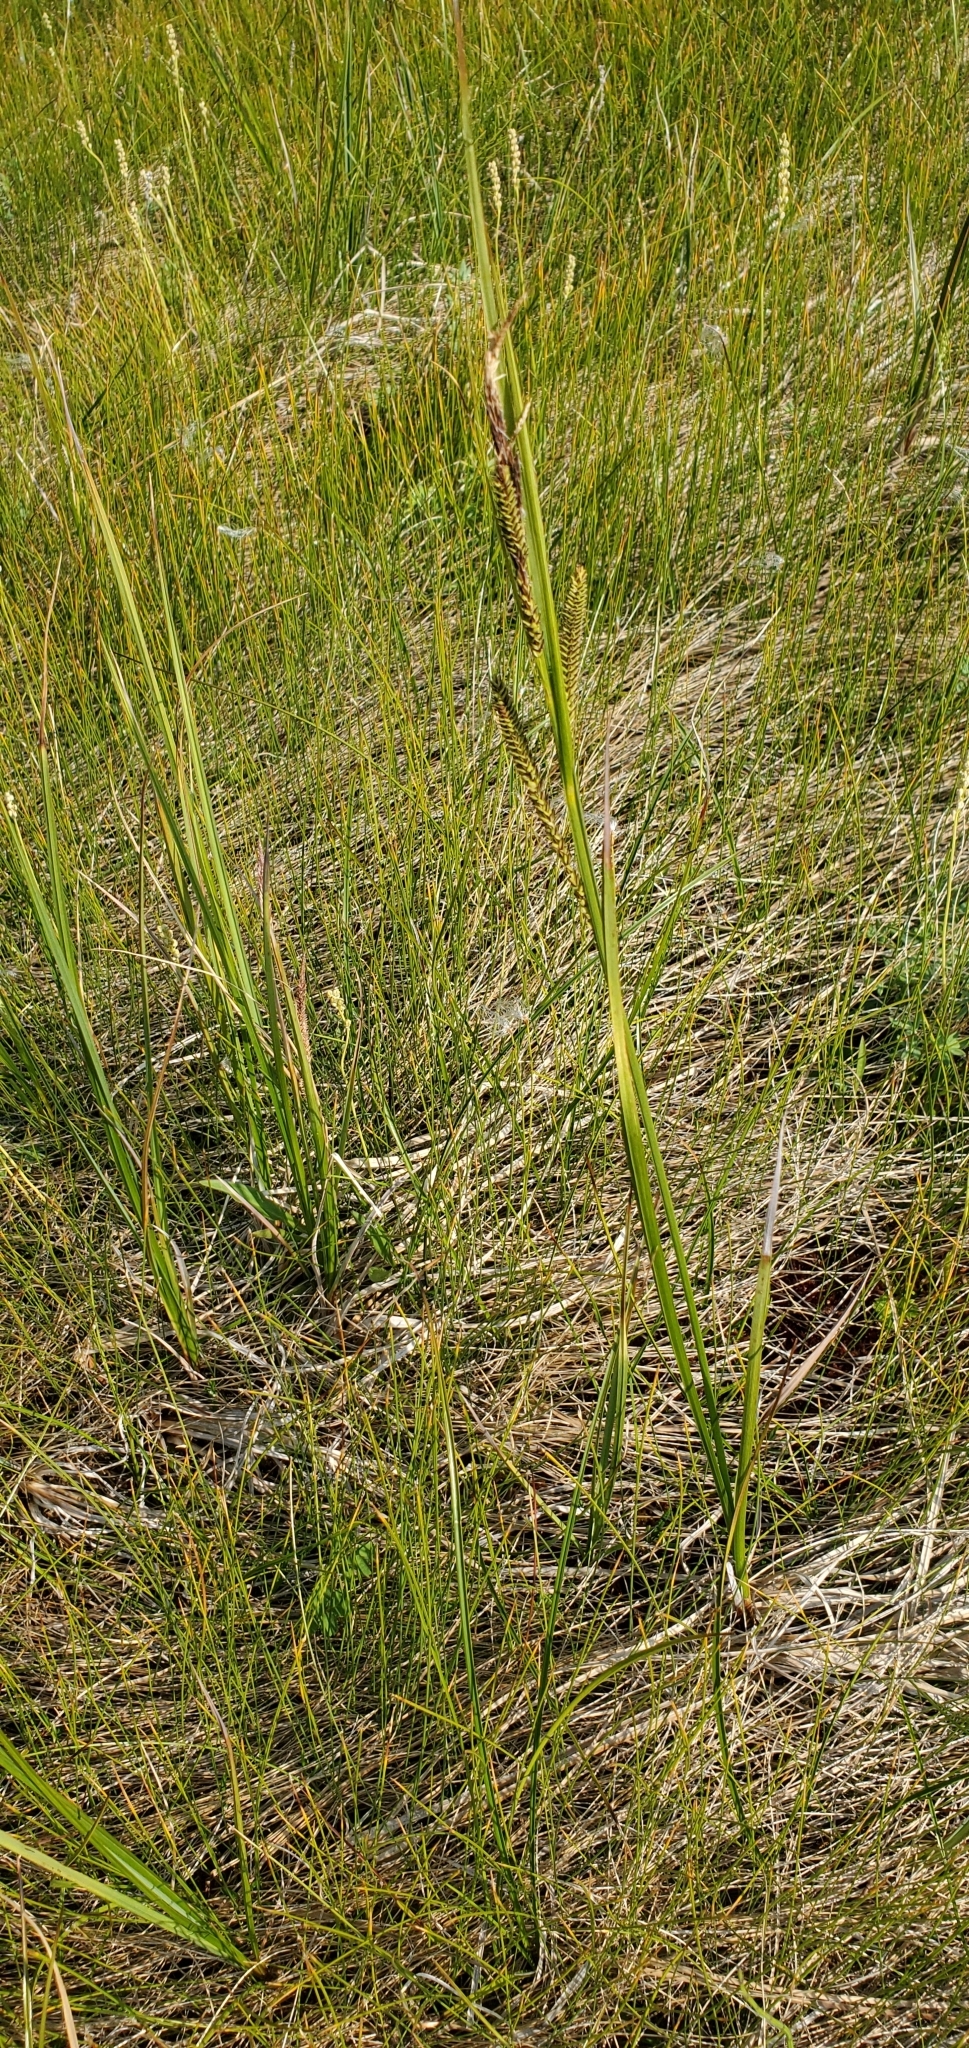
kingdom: Plantae
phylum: Tracheophyta
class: Liliopsida
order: Poales
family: Cyperaceae
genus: Carex
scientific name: Carex aquatilis
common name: Water sedge
